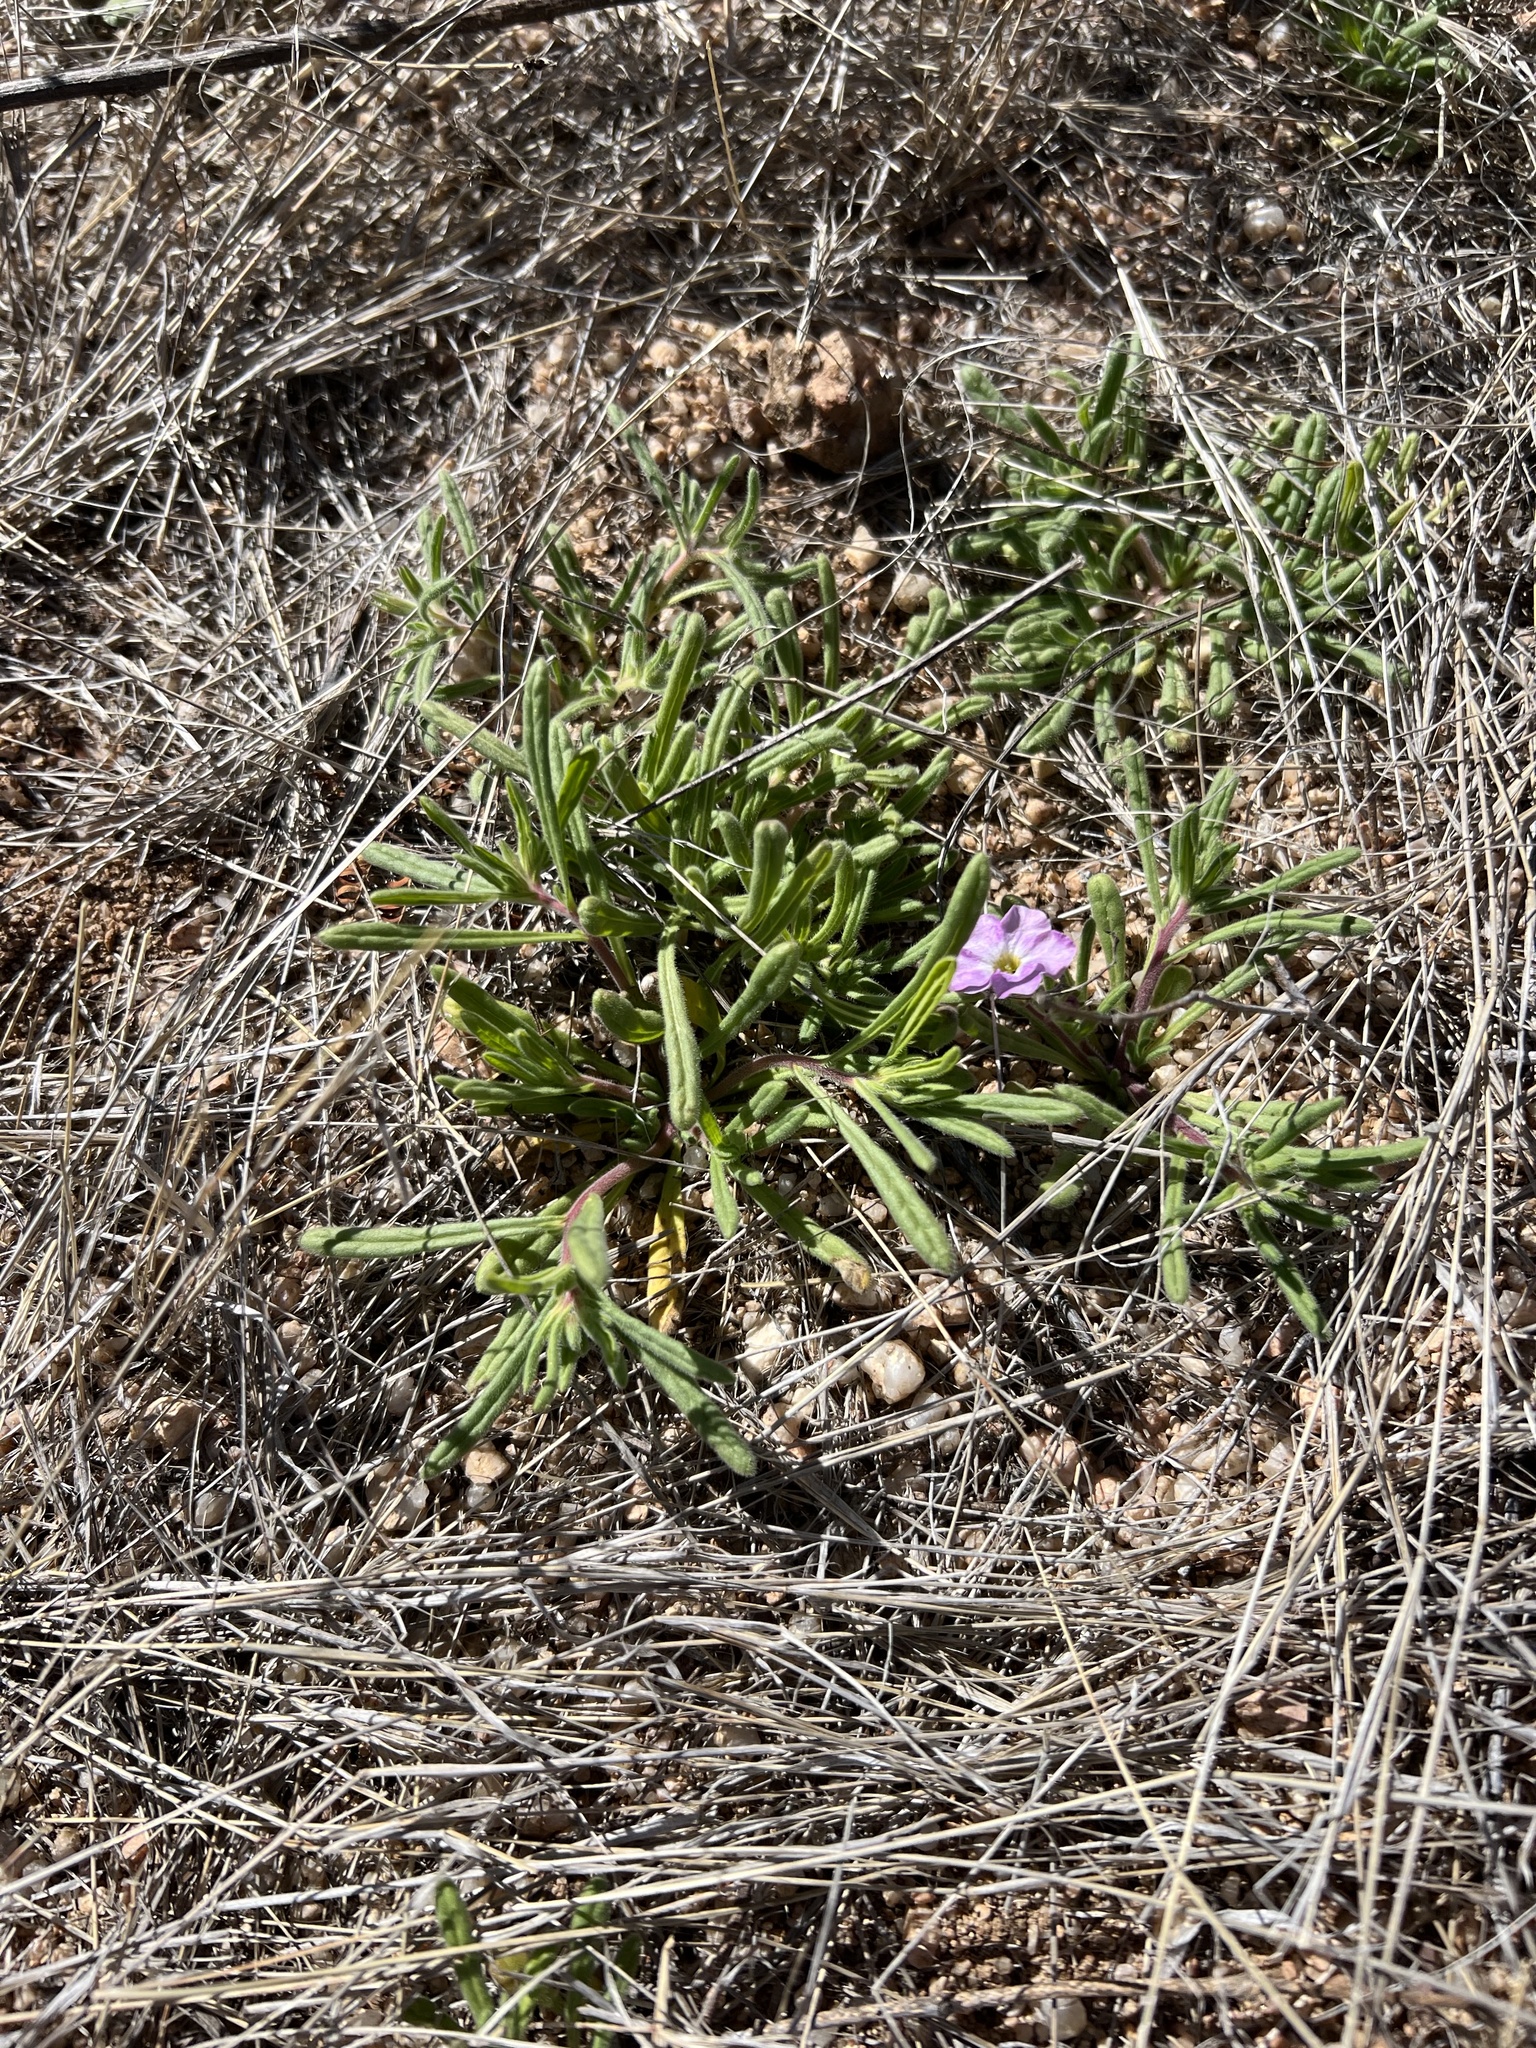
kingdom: Plantae
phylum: Tracheophyta
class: Magnoliopsida
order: Boraginales
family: Namaceae
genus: Nama
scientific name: Nama hispida
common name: Bristly nama
